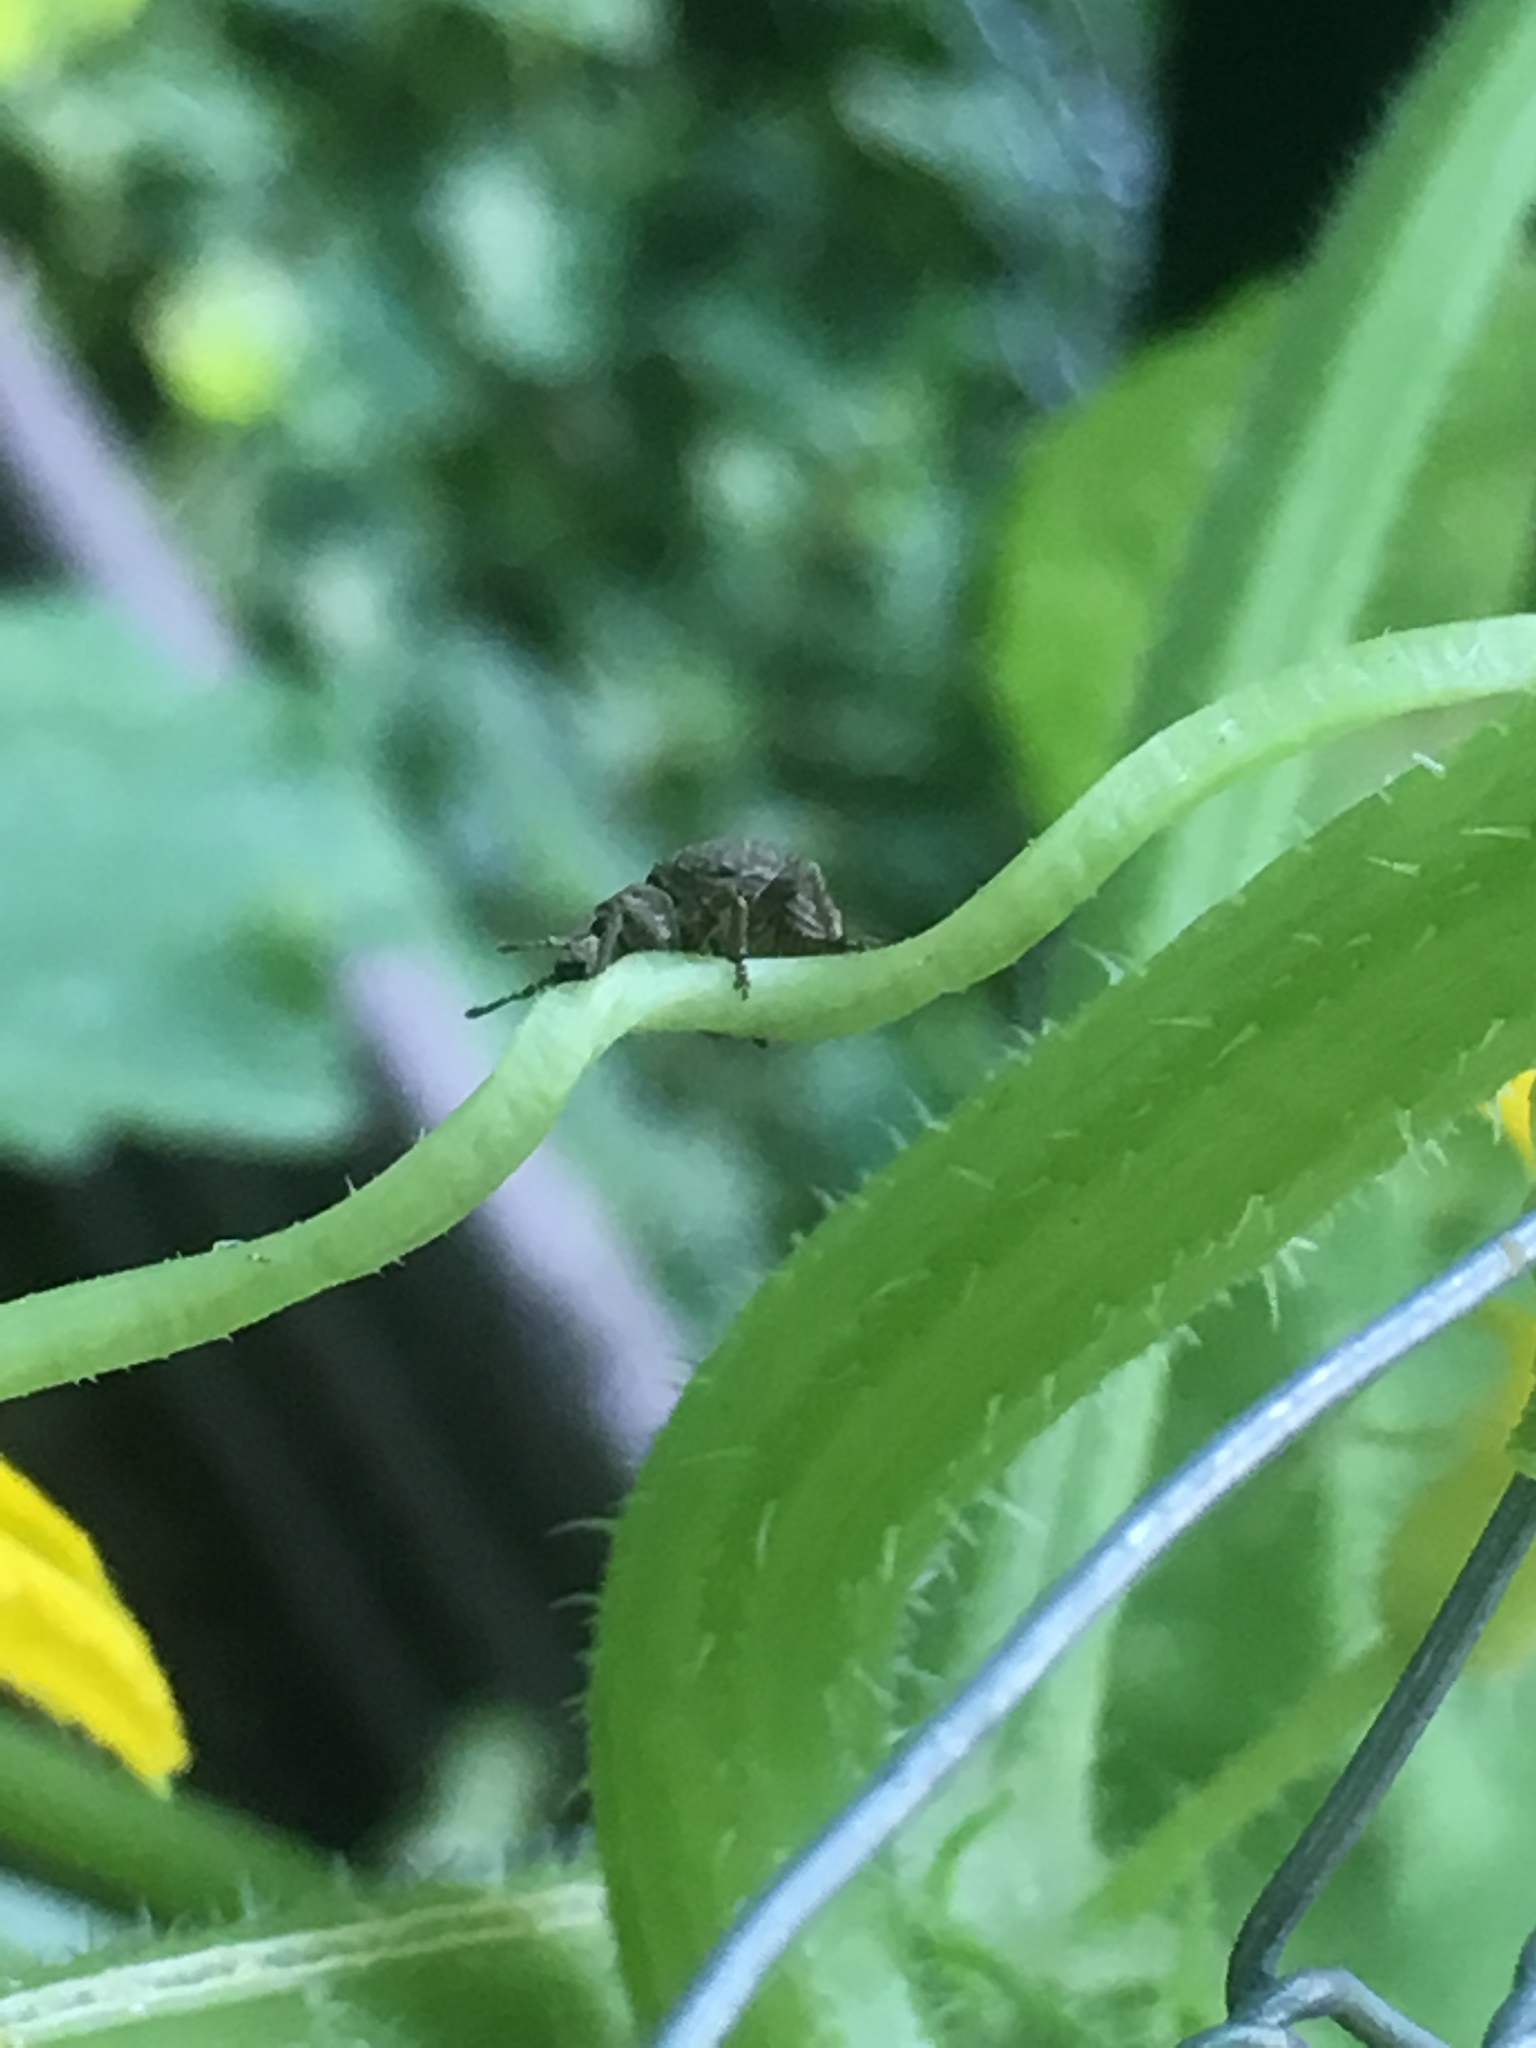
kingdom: Animalia
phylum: Arthropoda
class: Insecta
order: Coleoptera
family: Curculionidae
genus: Pseudocneorhinus
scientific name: Pseudocneorhinus bifasciatus
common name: Two-banded japanese weevil
